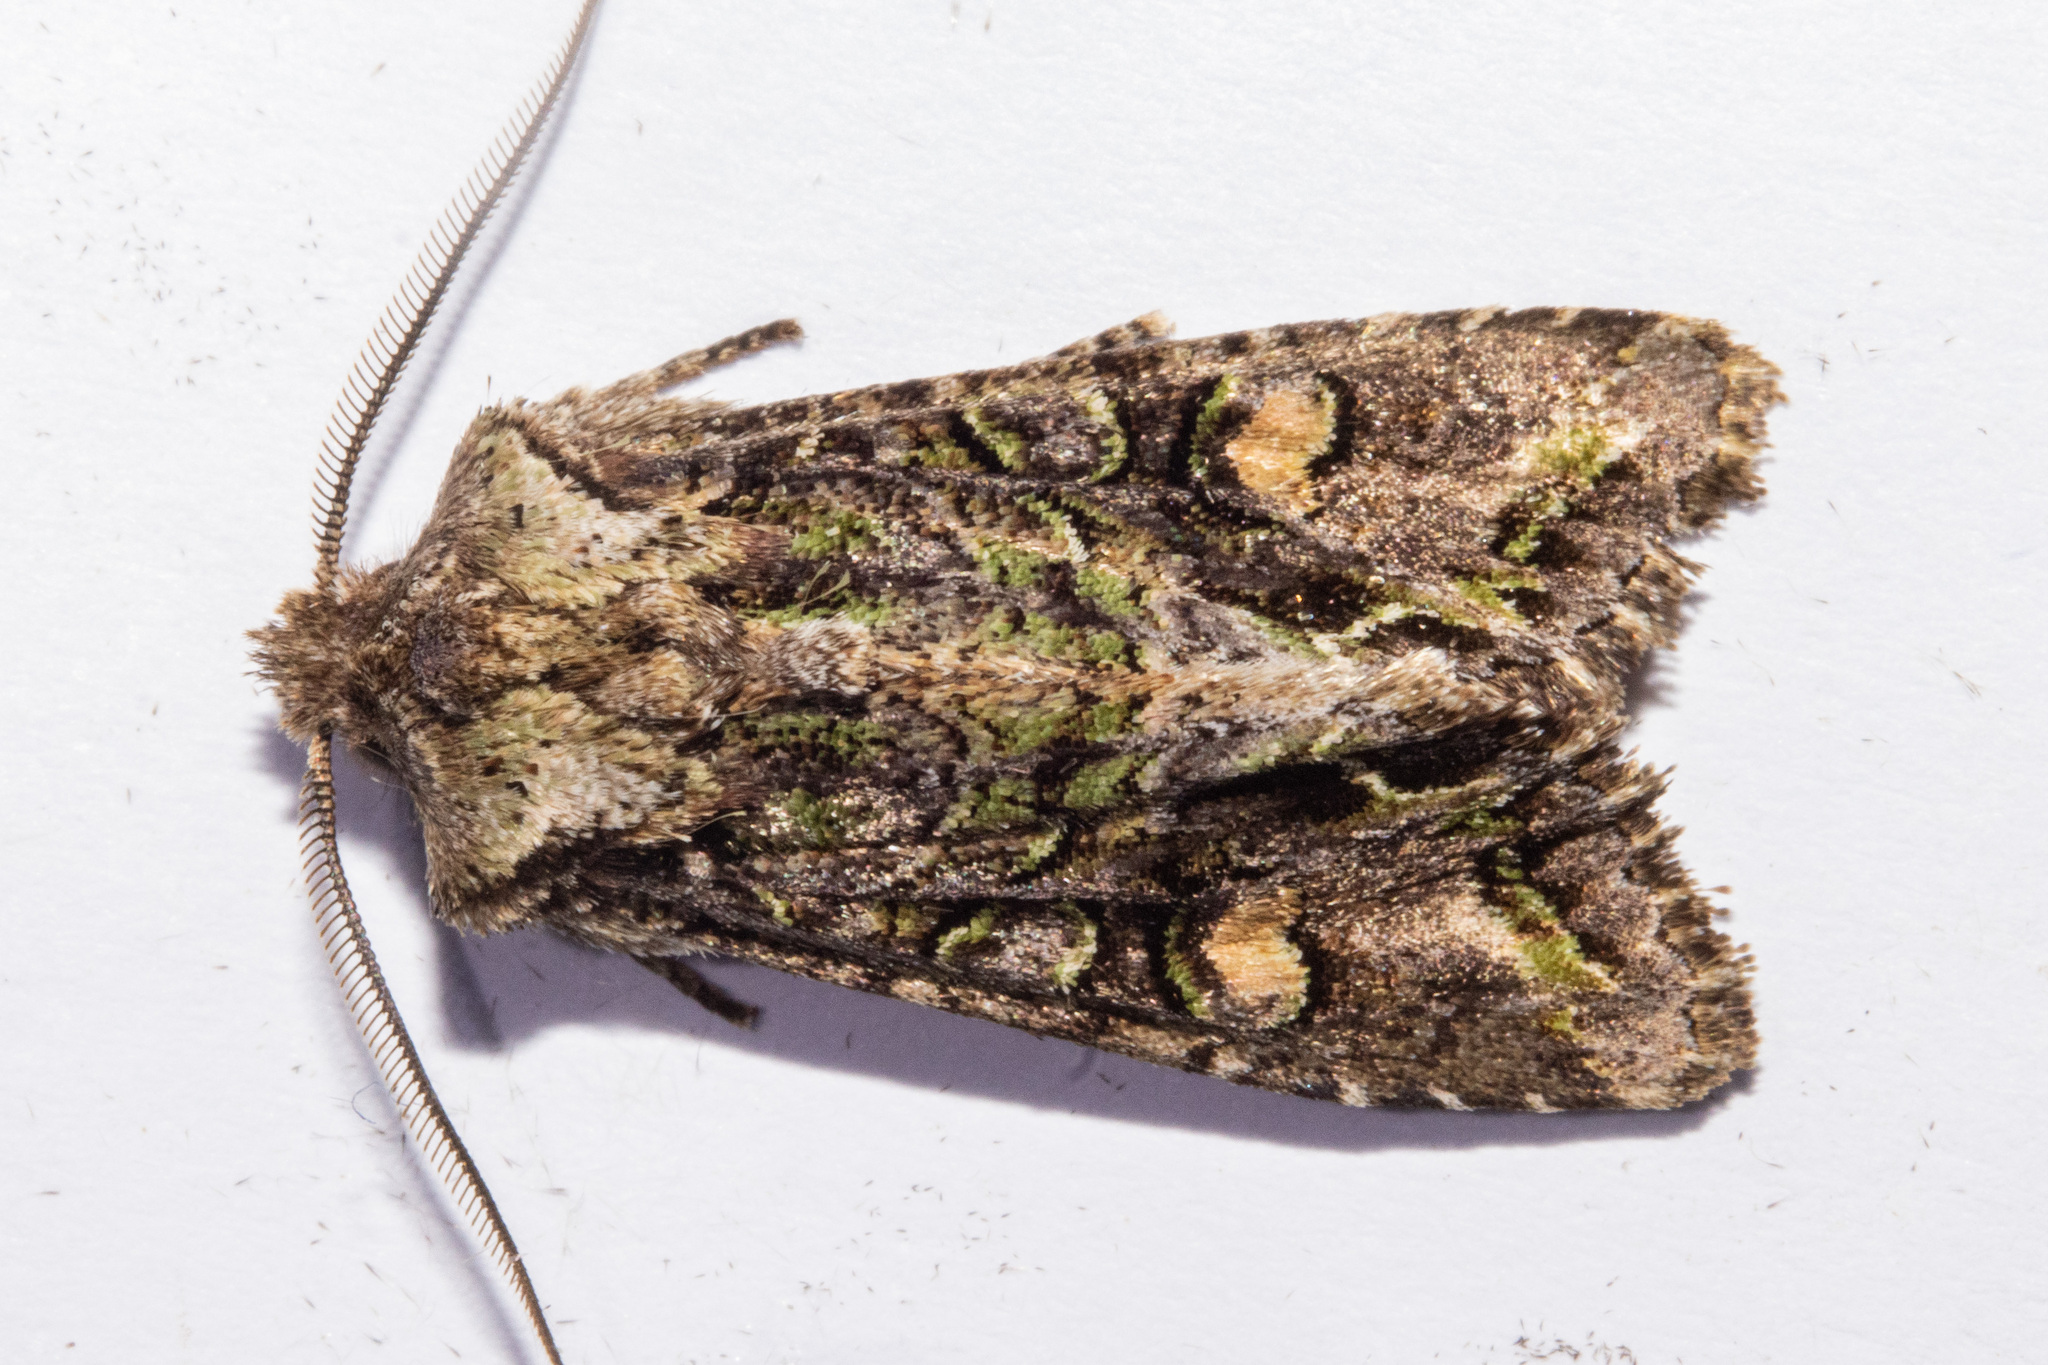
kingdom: Animalia
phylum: Arthropoda
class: Insecta
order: Lepidoptera
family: Noctuidae
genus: Ichneutica
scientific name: Ichneutica skelloni
